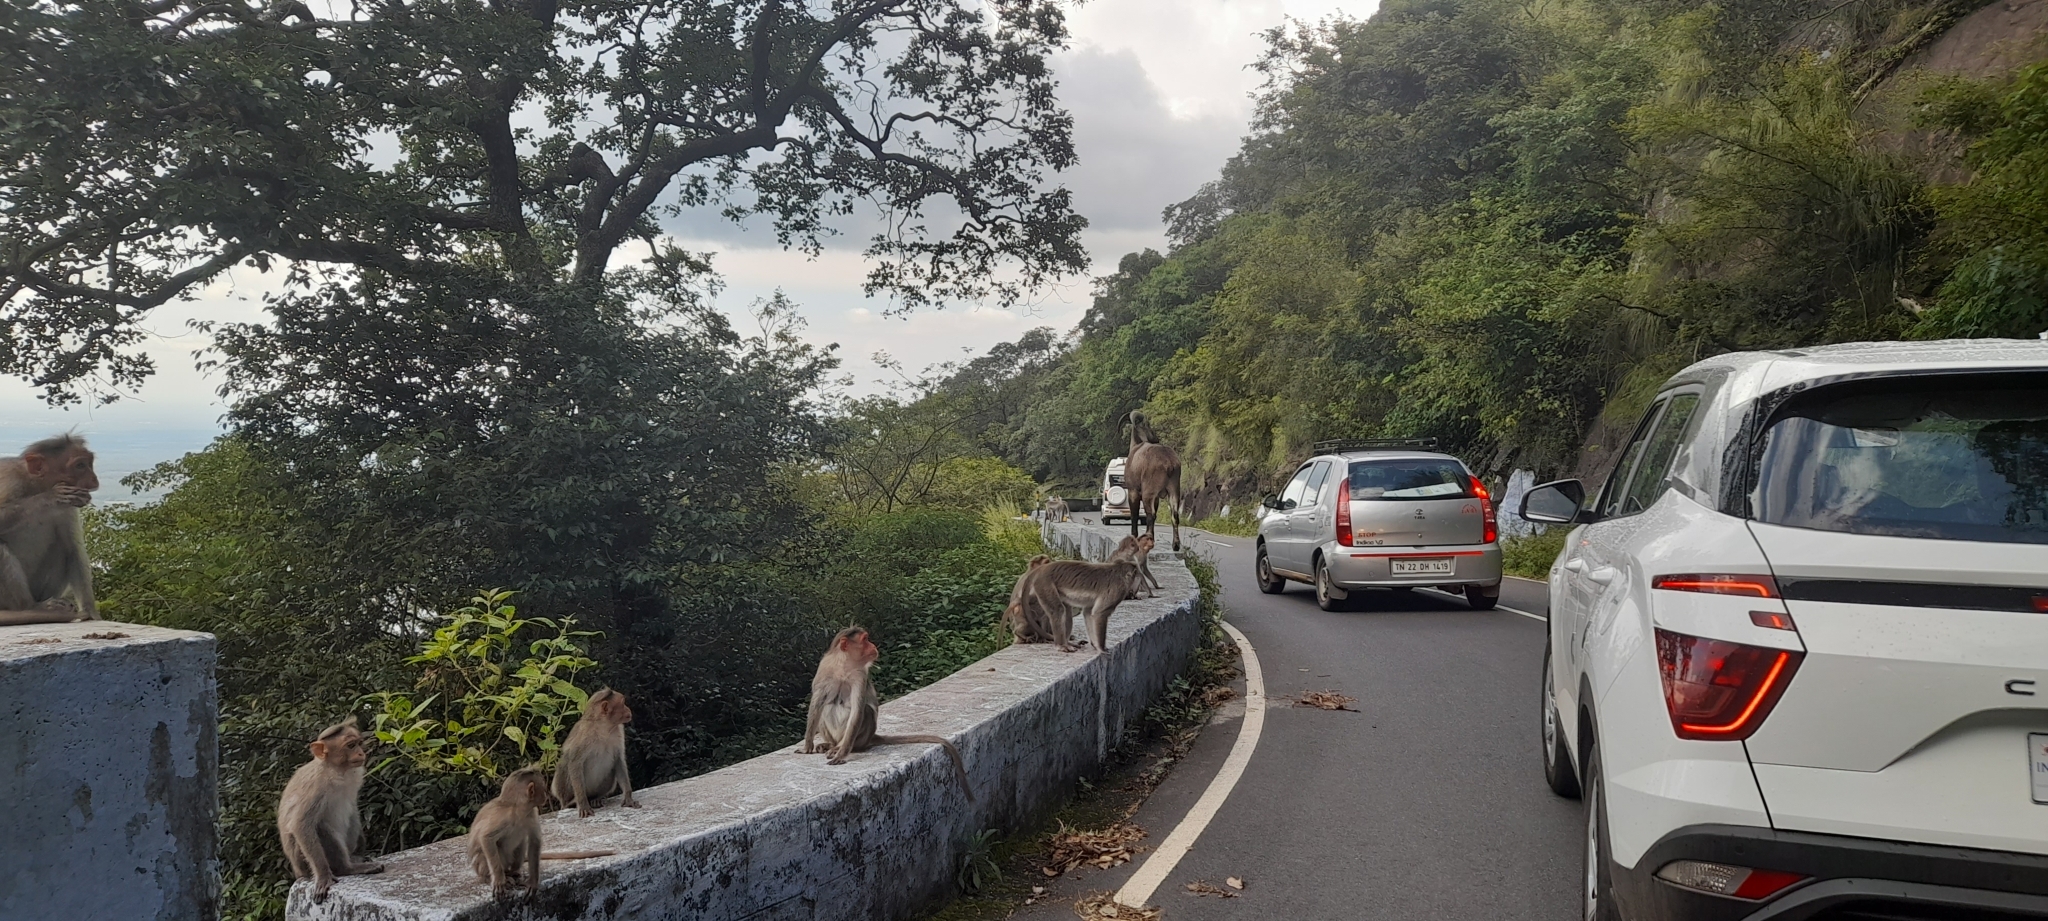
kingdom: Animalia
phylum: Chordata
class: Mammalia
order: Primates
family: Cercopithecidae
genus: Macaca
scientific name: Macaca radiata
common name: Bonnet macaque
